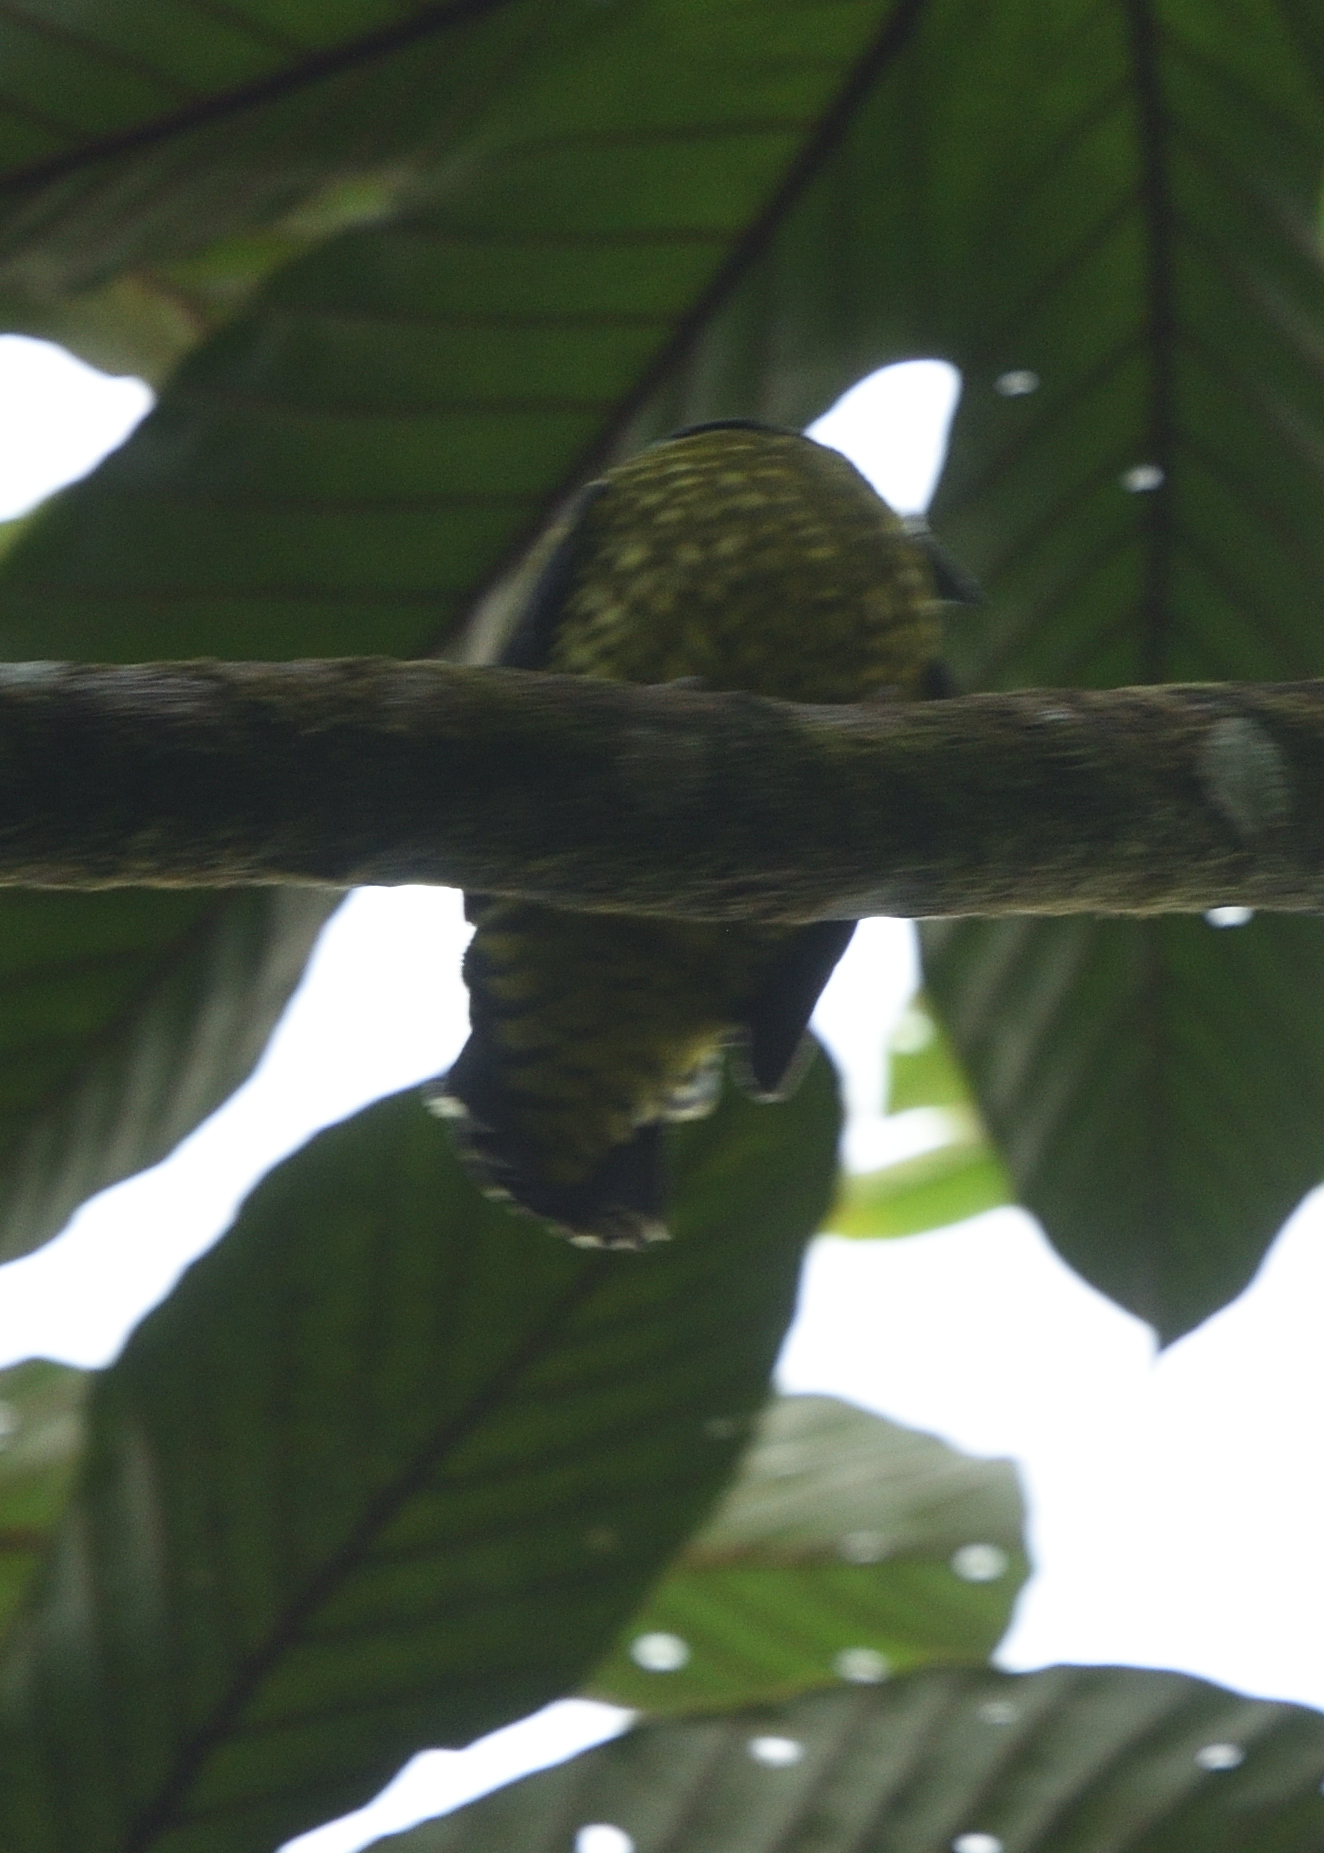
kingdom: Animalia
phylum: Chordata
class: Aves
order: Passeriformes
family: Cotingidae
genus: Ampelioides
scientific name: Ampelioides tschudii
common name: Scaled fruiteater
